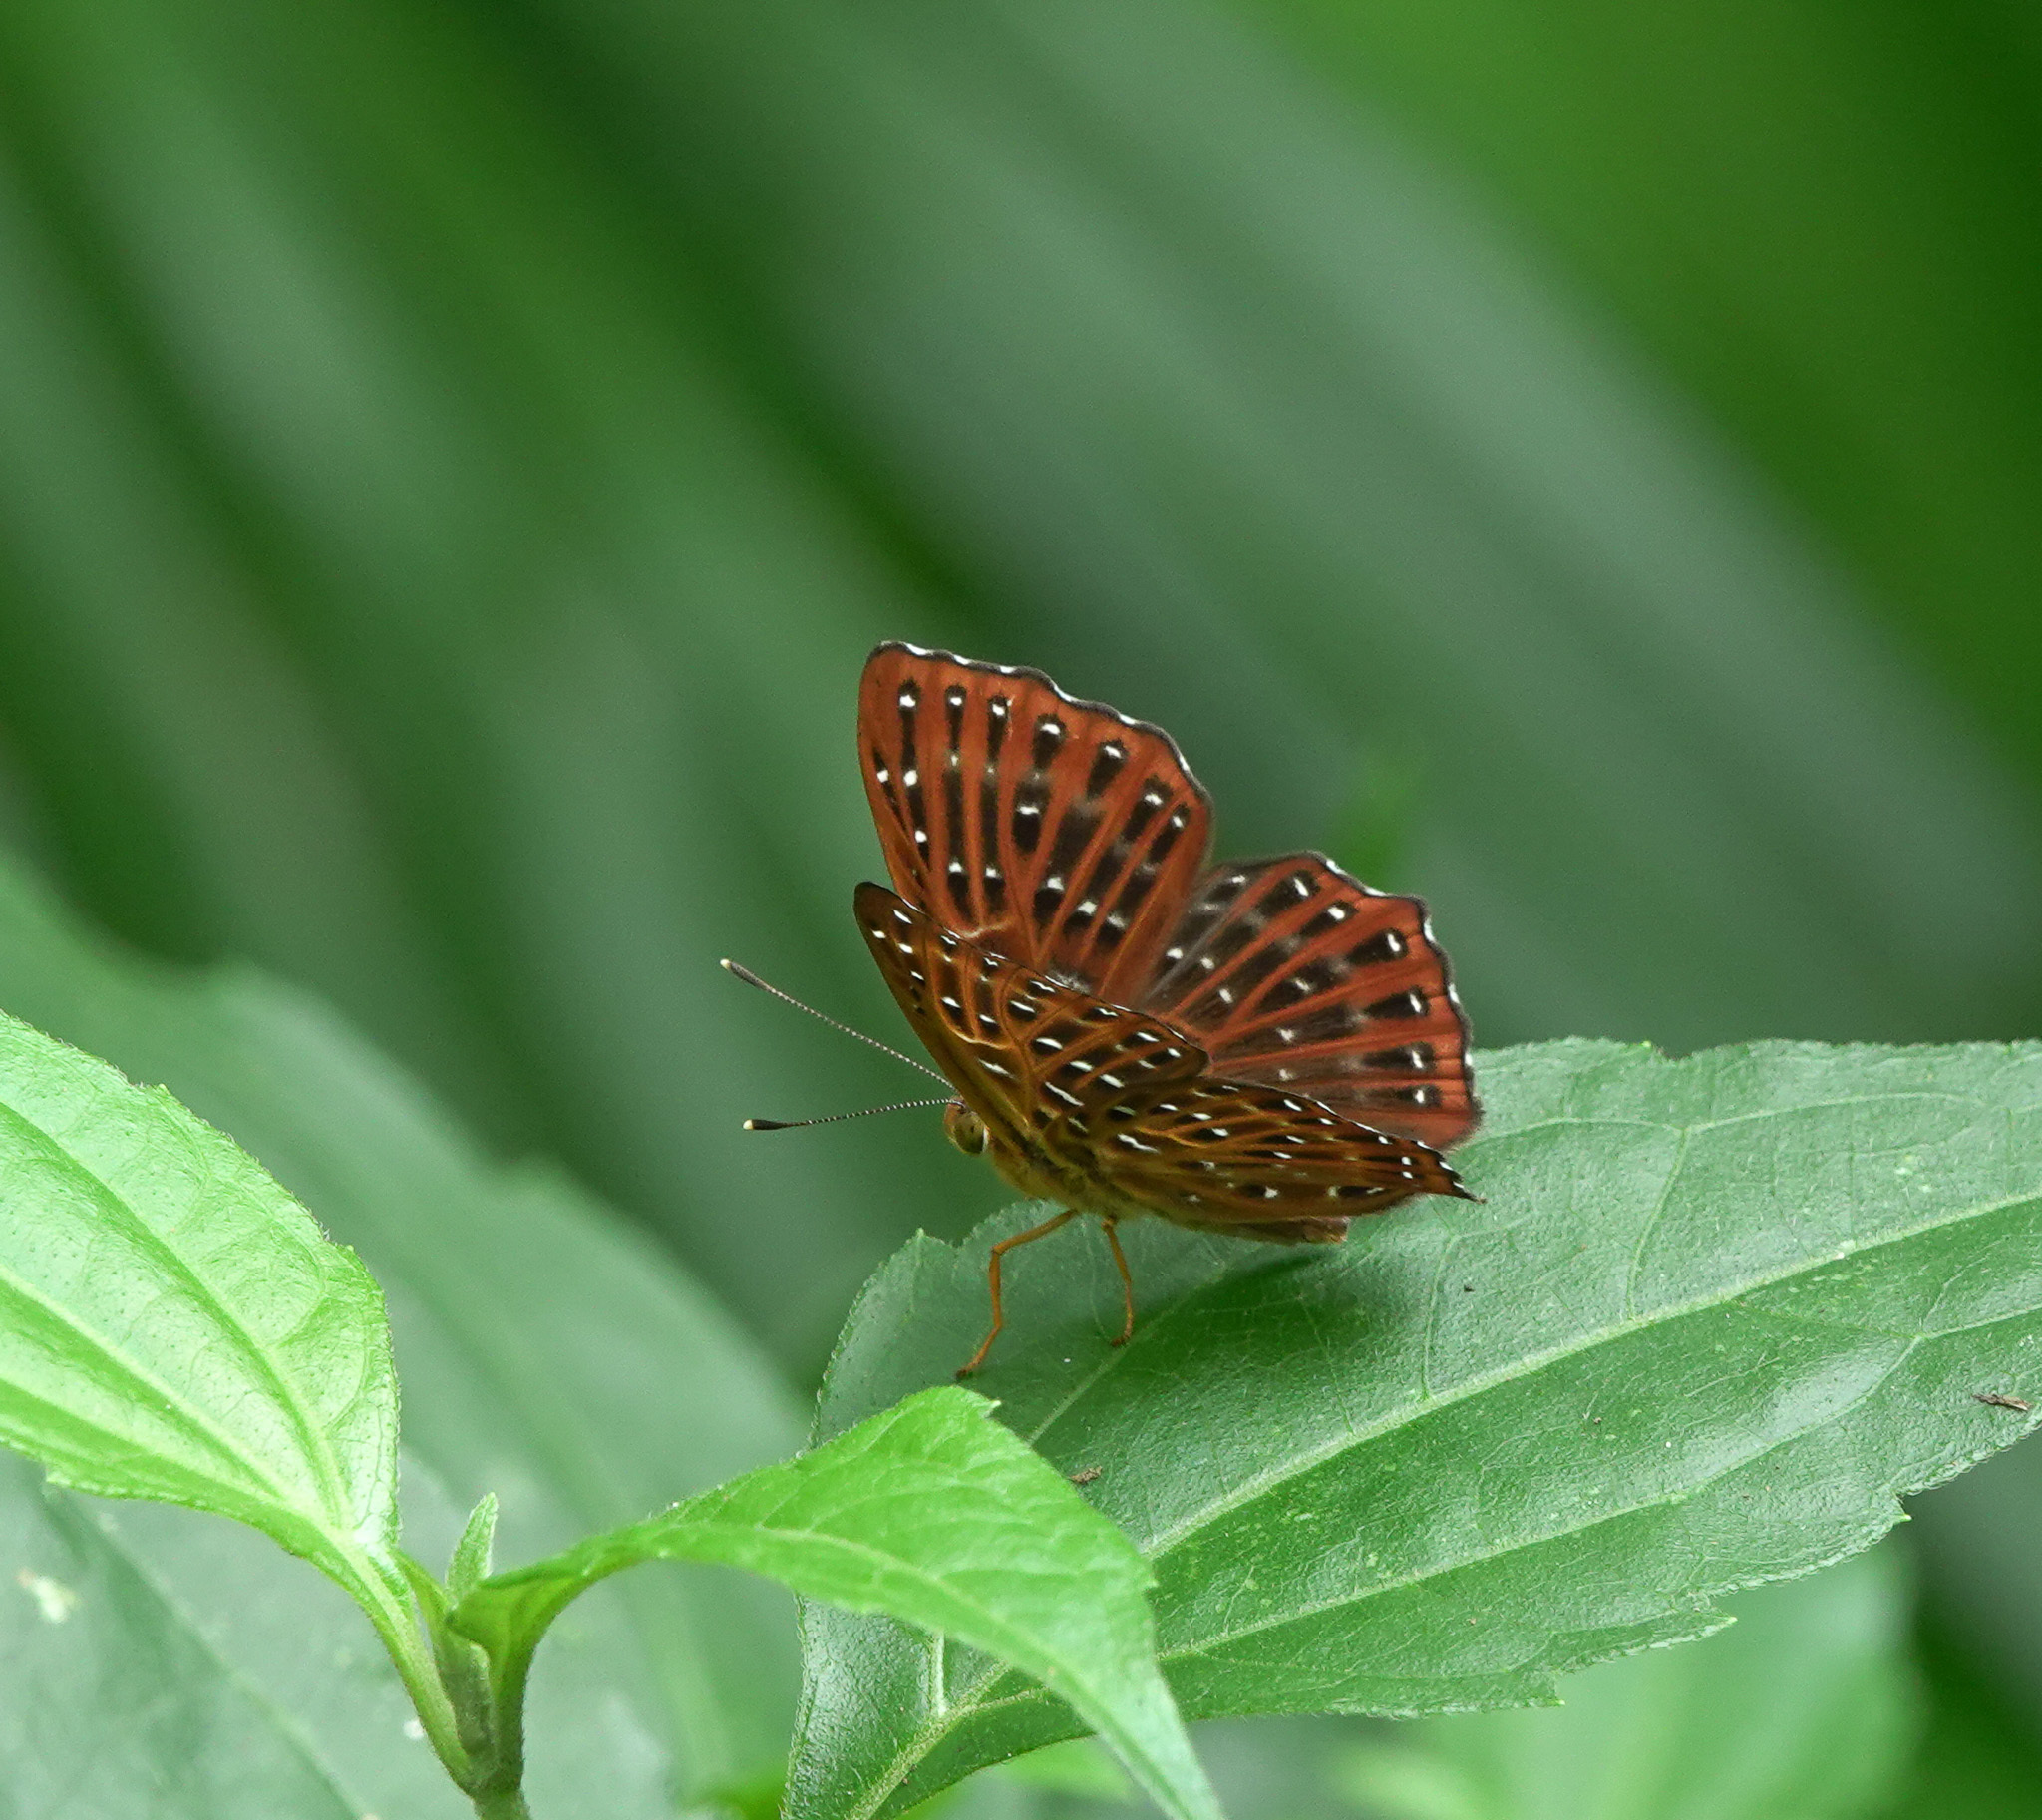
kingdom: Animalia
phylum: Arthropoda
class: Insecta
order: Lepidoptera
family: Riodinidae
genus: Zemeros
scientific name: Zemeros flegyas
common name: Punchinello
